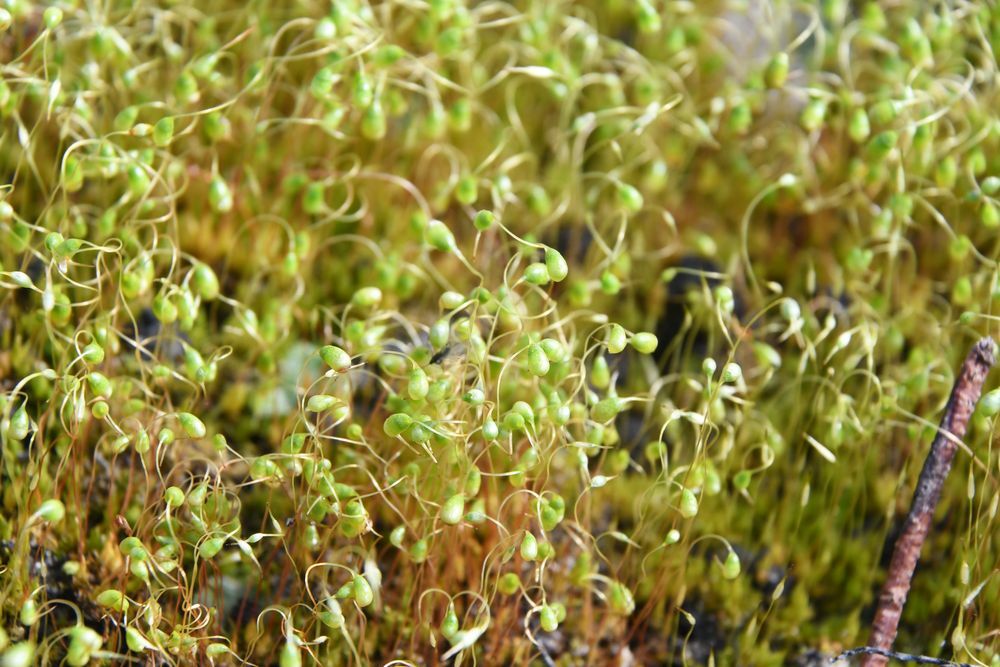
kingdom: Plantae
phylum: Bryophyta
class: Bryopsida
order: Funariales
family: Funariaceae
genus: Funaria
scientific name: Funaria hygrometrica
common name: Common cord moss
